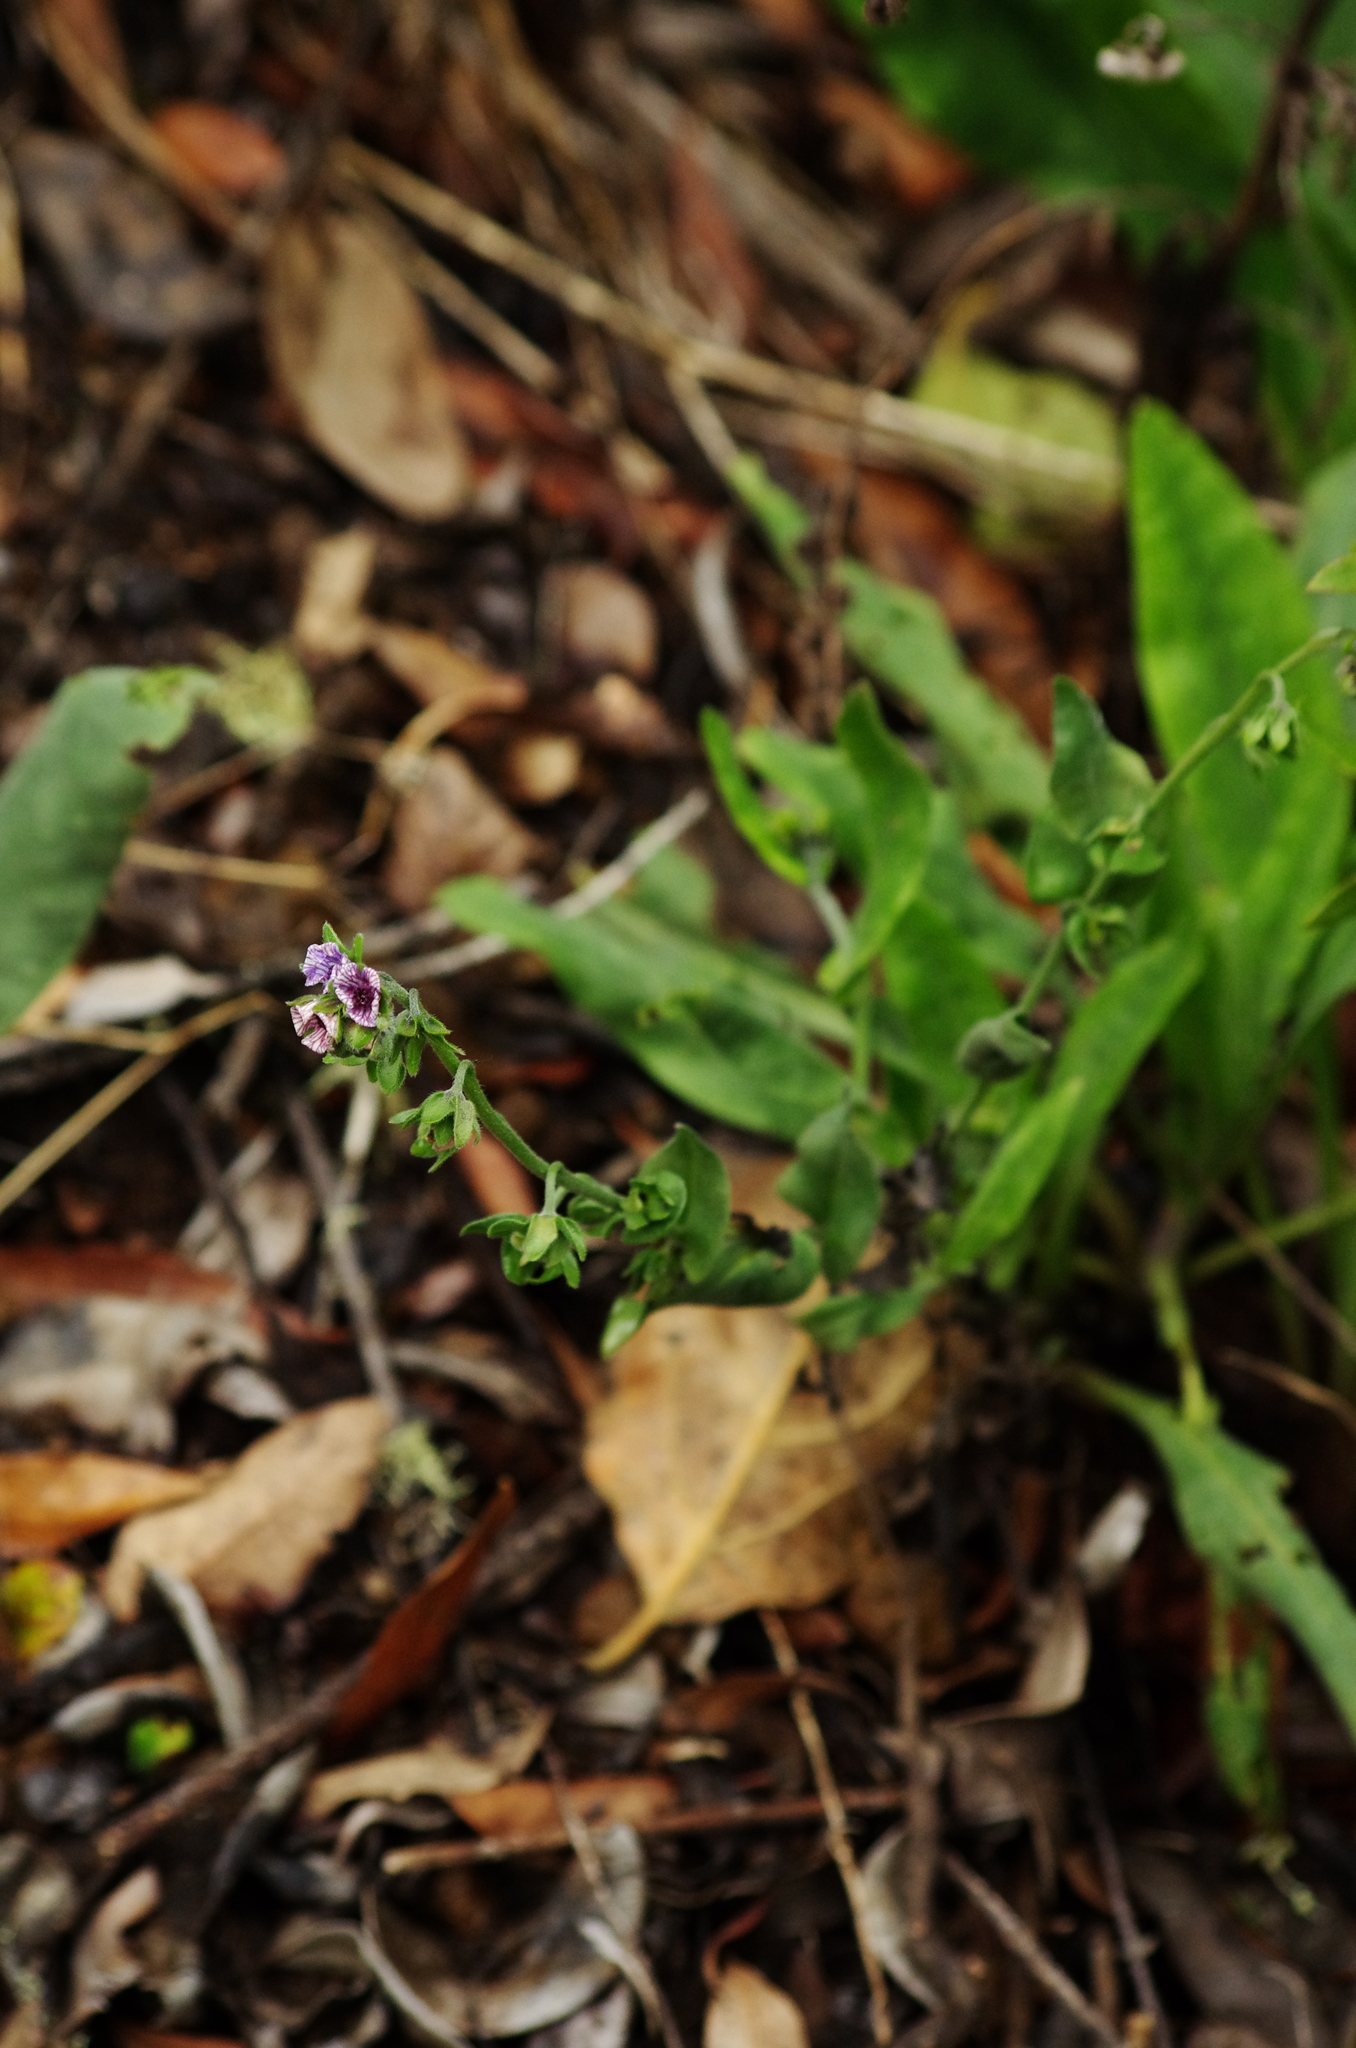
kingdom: Plantae
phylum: Tracheophyta
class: Magnoliopsida
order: Boraginales
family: Boraginaceae
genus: Cynoglossum
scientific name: Cynoglossum creticum
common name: Blue hound's tongue
